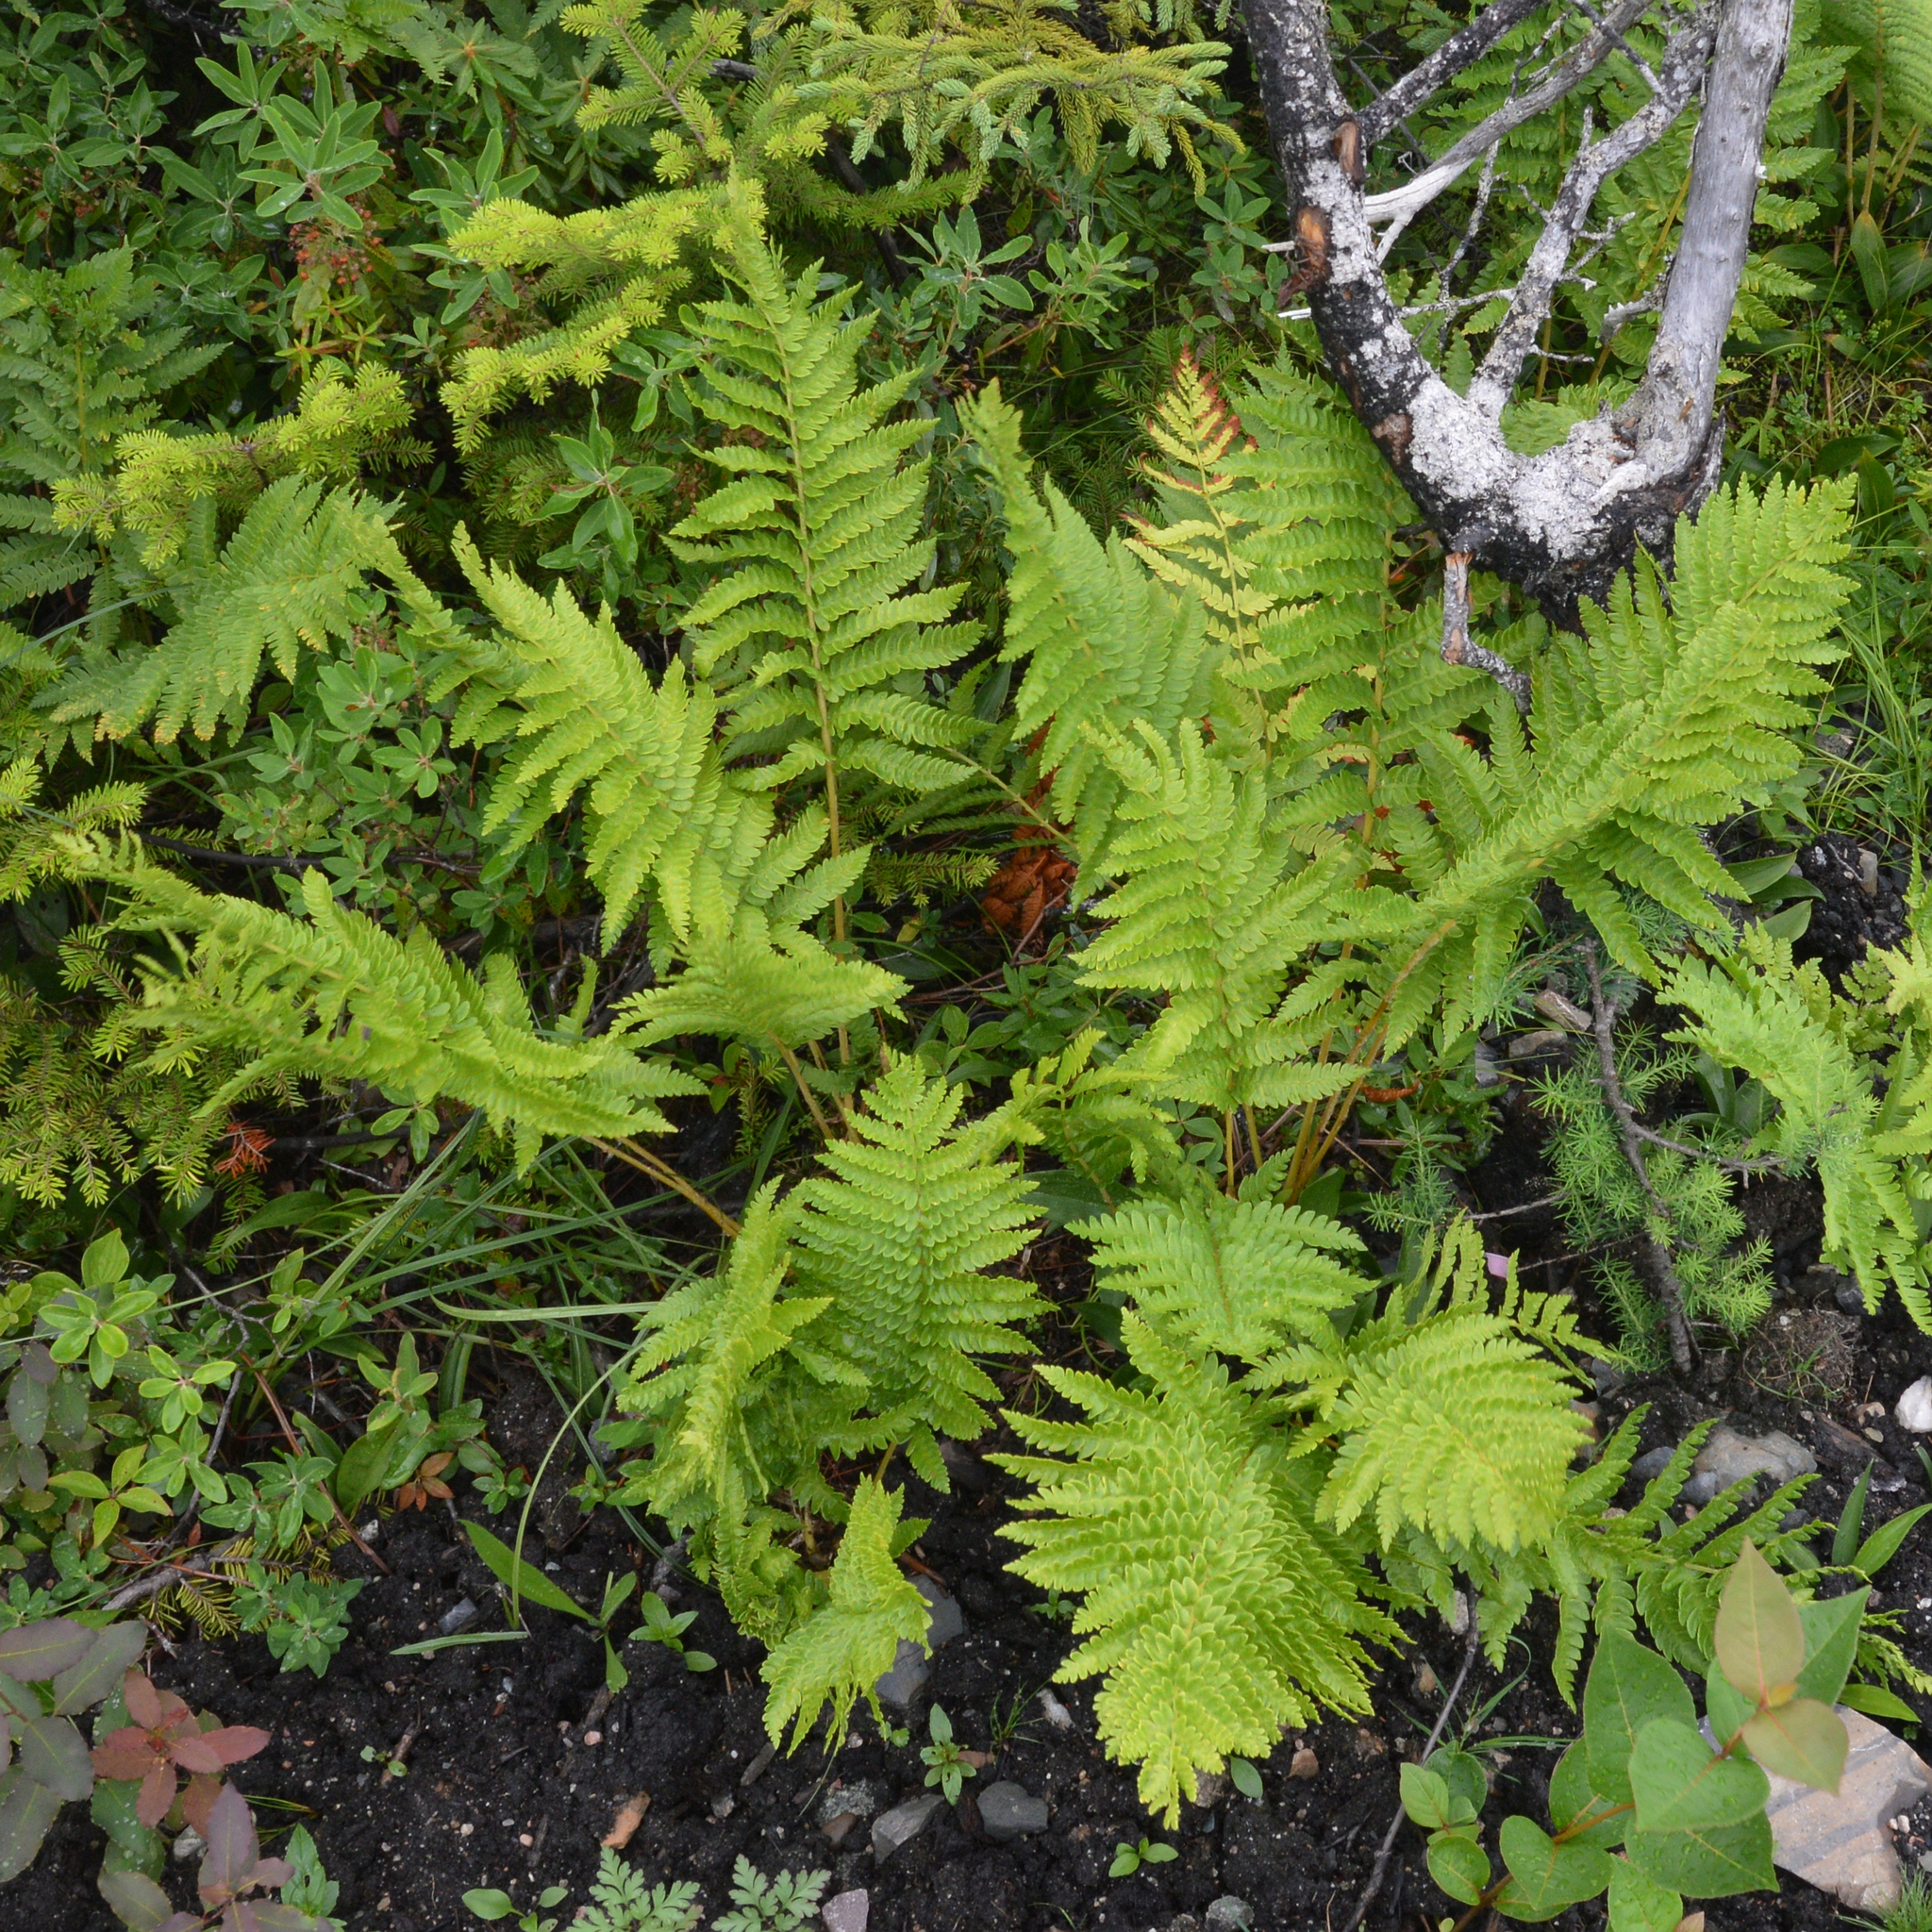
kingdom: Plantae
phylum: Tracheophyta
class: Polypodiopsida
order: Osmundales
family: Osmundaceae
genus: Osmundastrum
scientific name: Osmundastrum cinnamomeum
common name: Cinnamon fern
